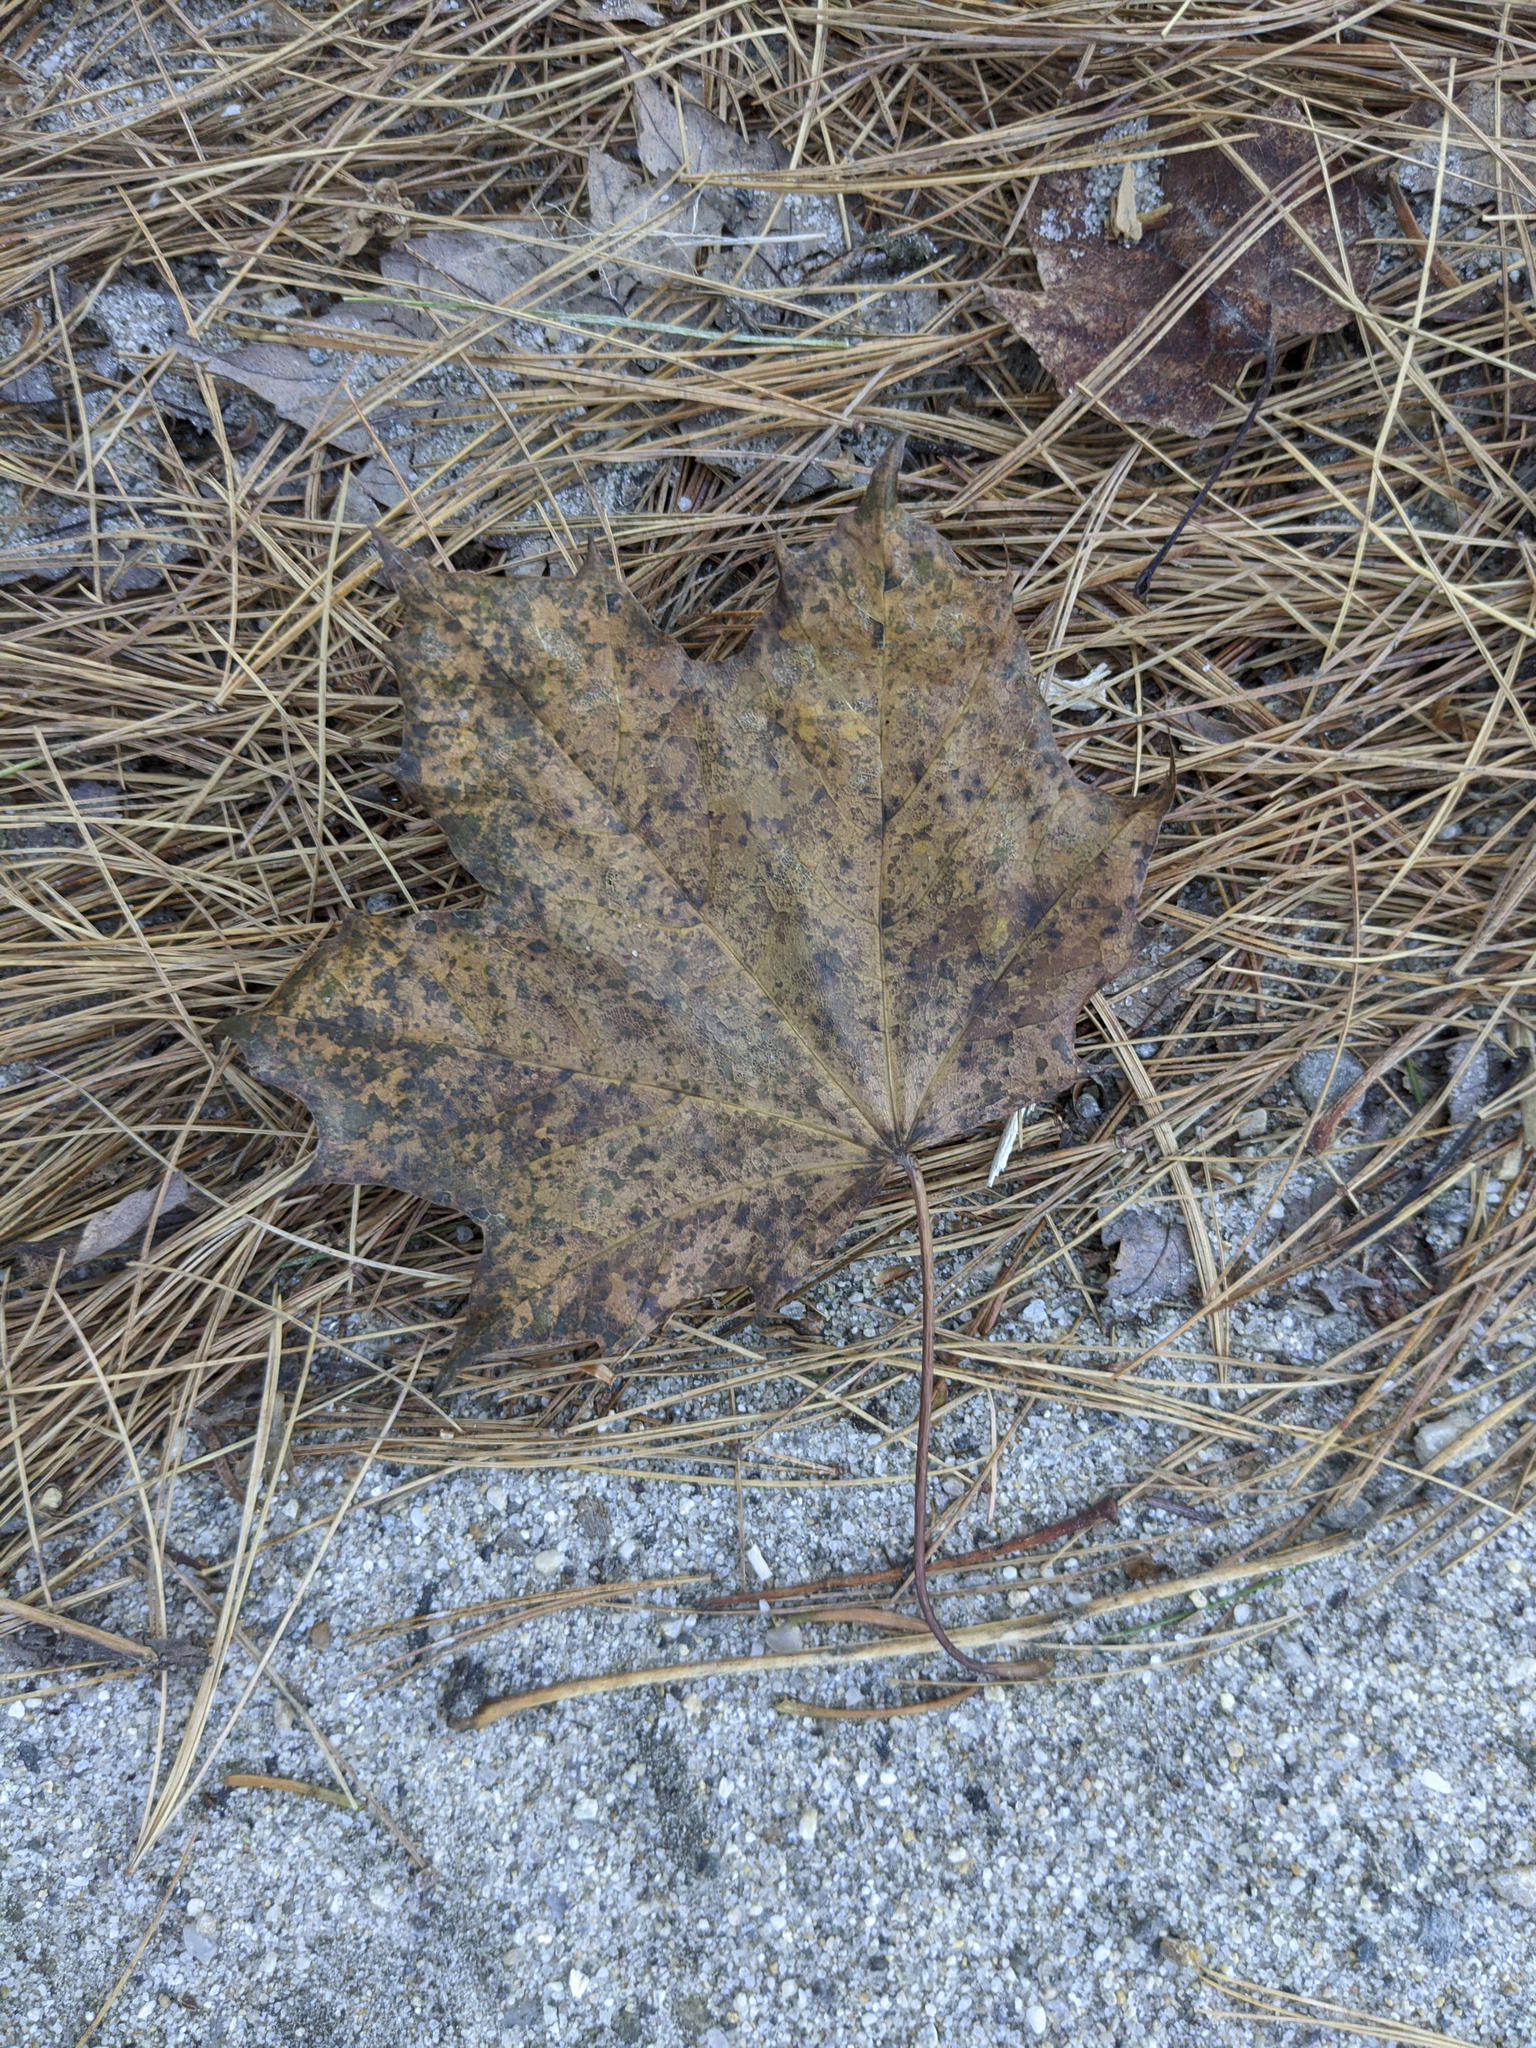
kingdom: Plantae
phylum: Tracheophyta
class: Magnoliopsida
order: Sapindales
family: Sapindaceae
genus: Acer
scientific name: Acer rubrum
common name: Red maple
